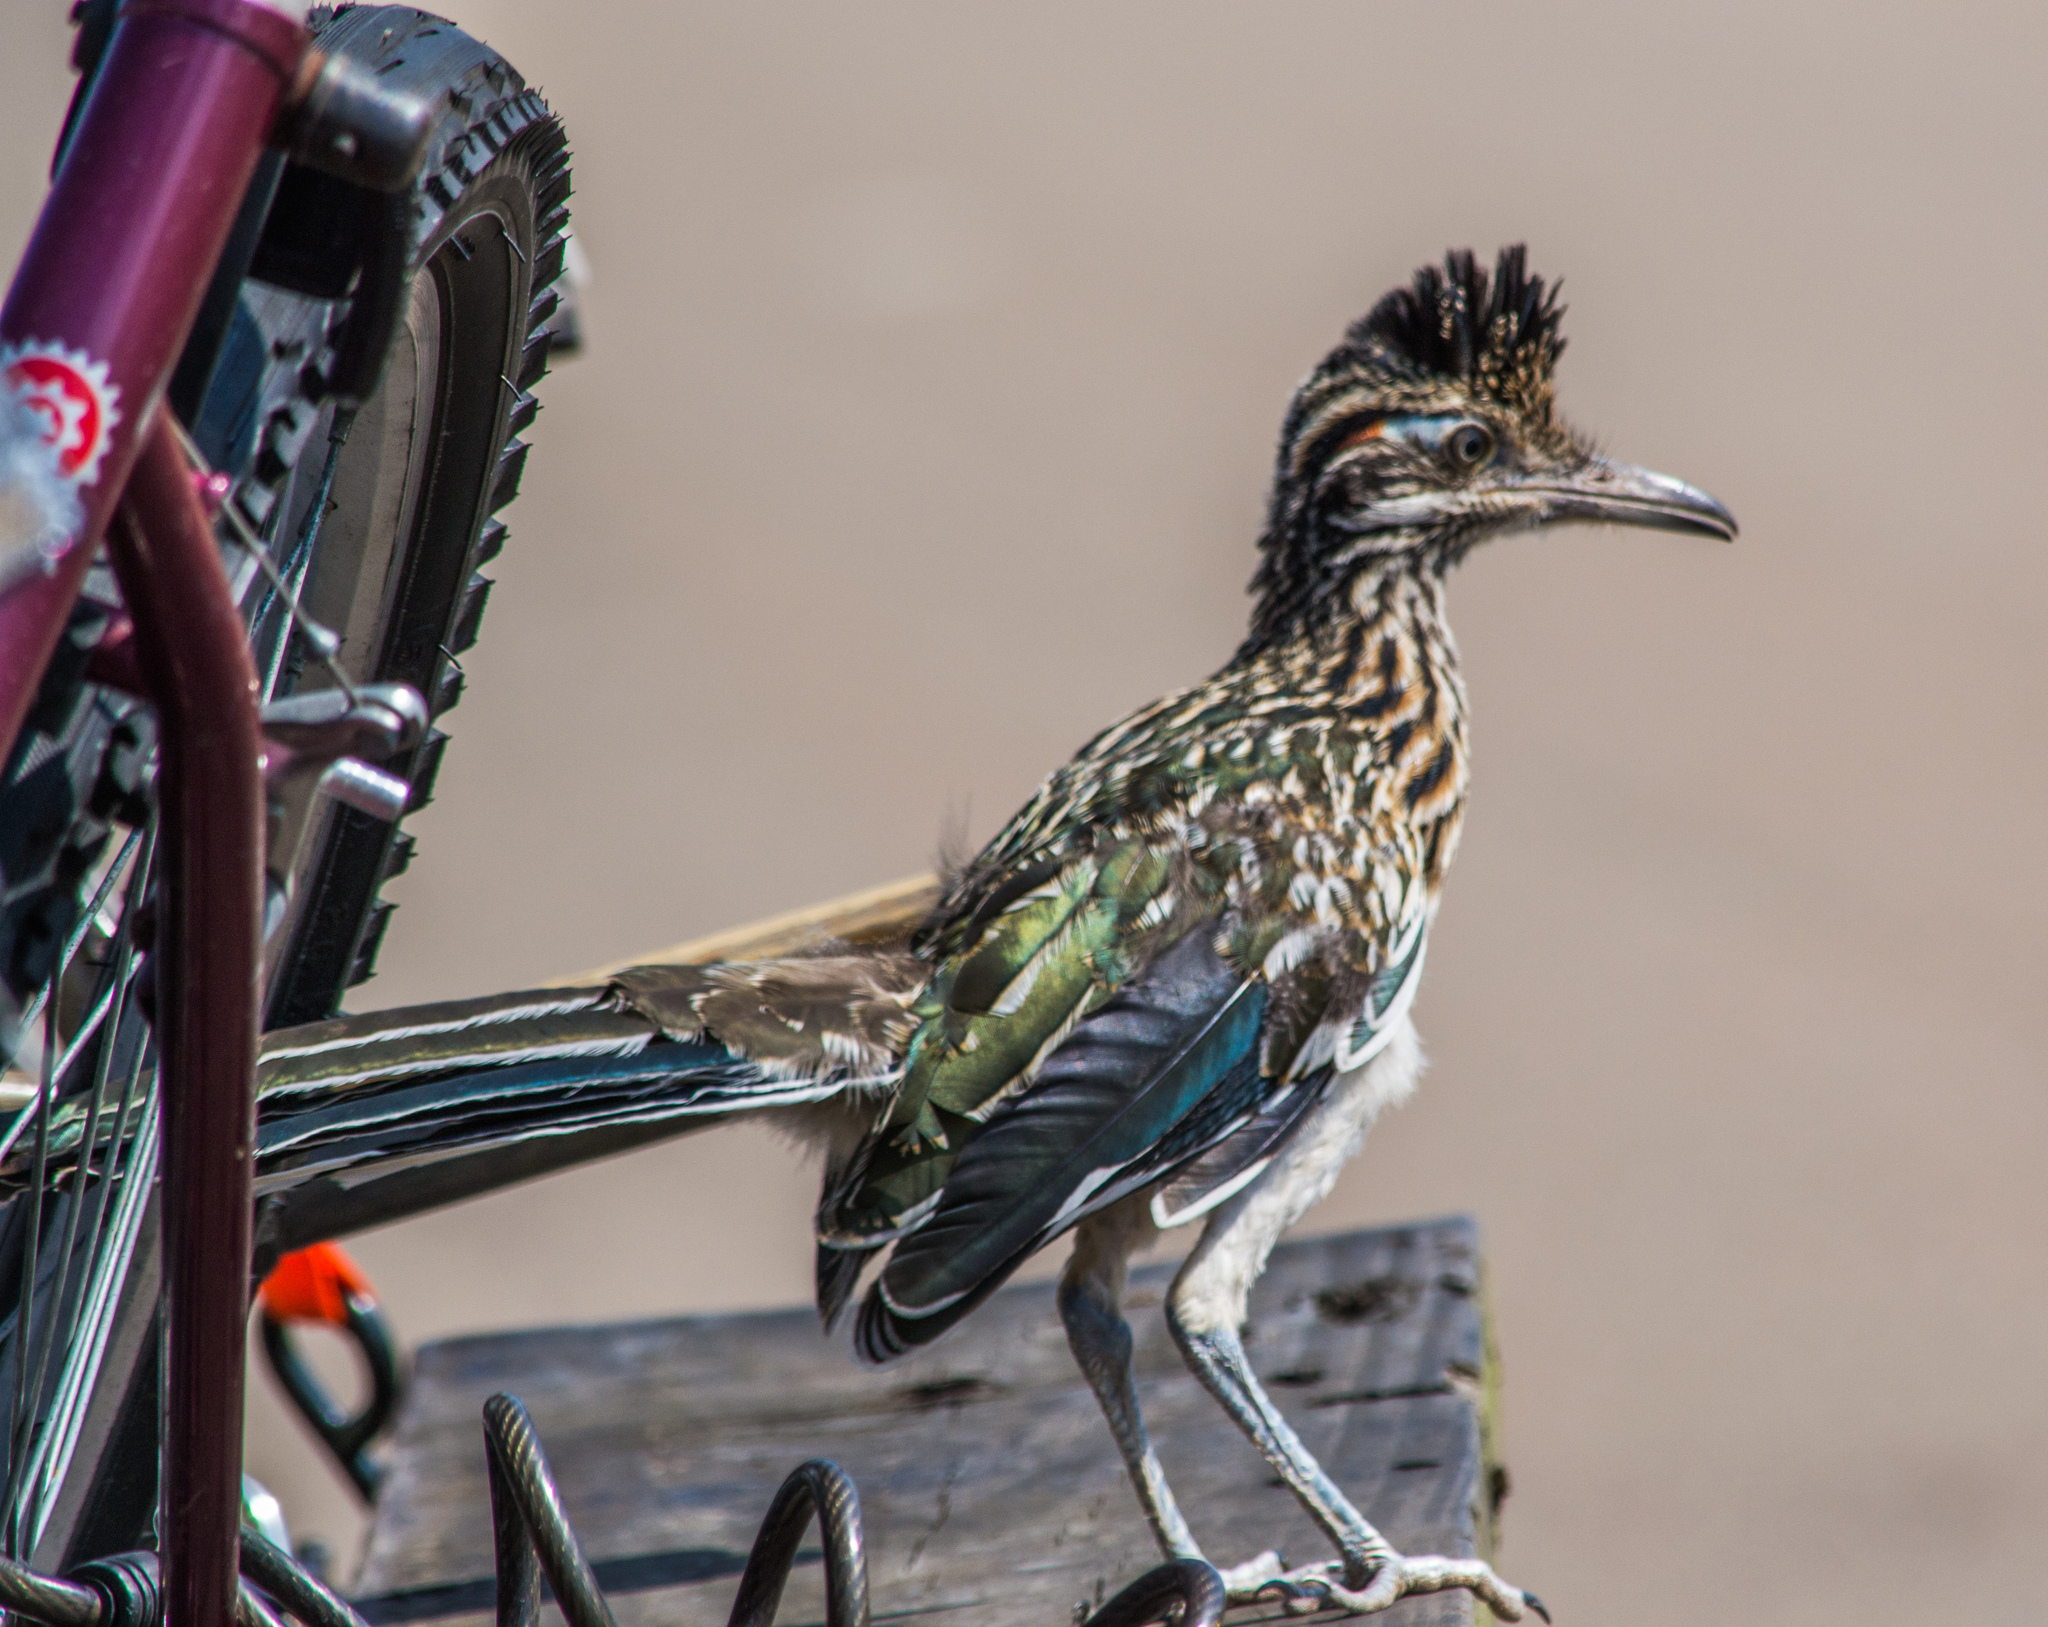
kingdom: Animalia
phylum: Chordata
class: Aves
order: Cuculiformes
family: Cuculidae
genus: Geococcyx
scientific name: Geococcyx californianus
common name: Greater roadrunner
